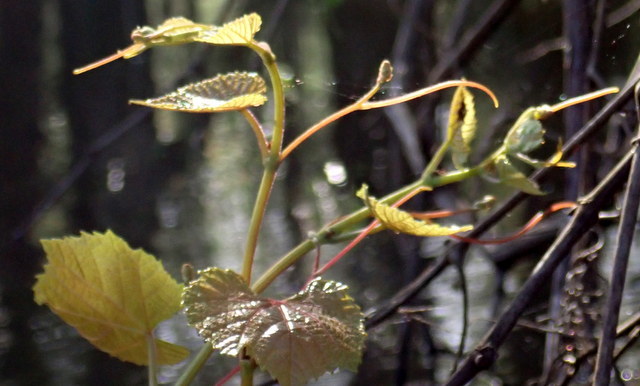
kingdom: Plantae
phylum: Tracheophyta
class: Magnoliopsida
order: Vitales
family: Vitaceae
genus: Vitis
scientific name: Vitis rotundifolia
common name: Muscadine grape
